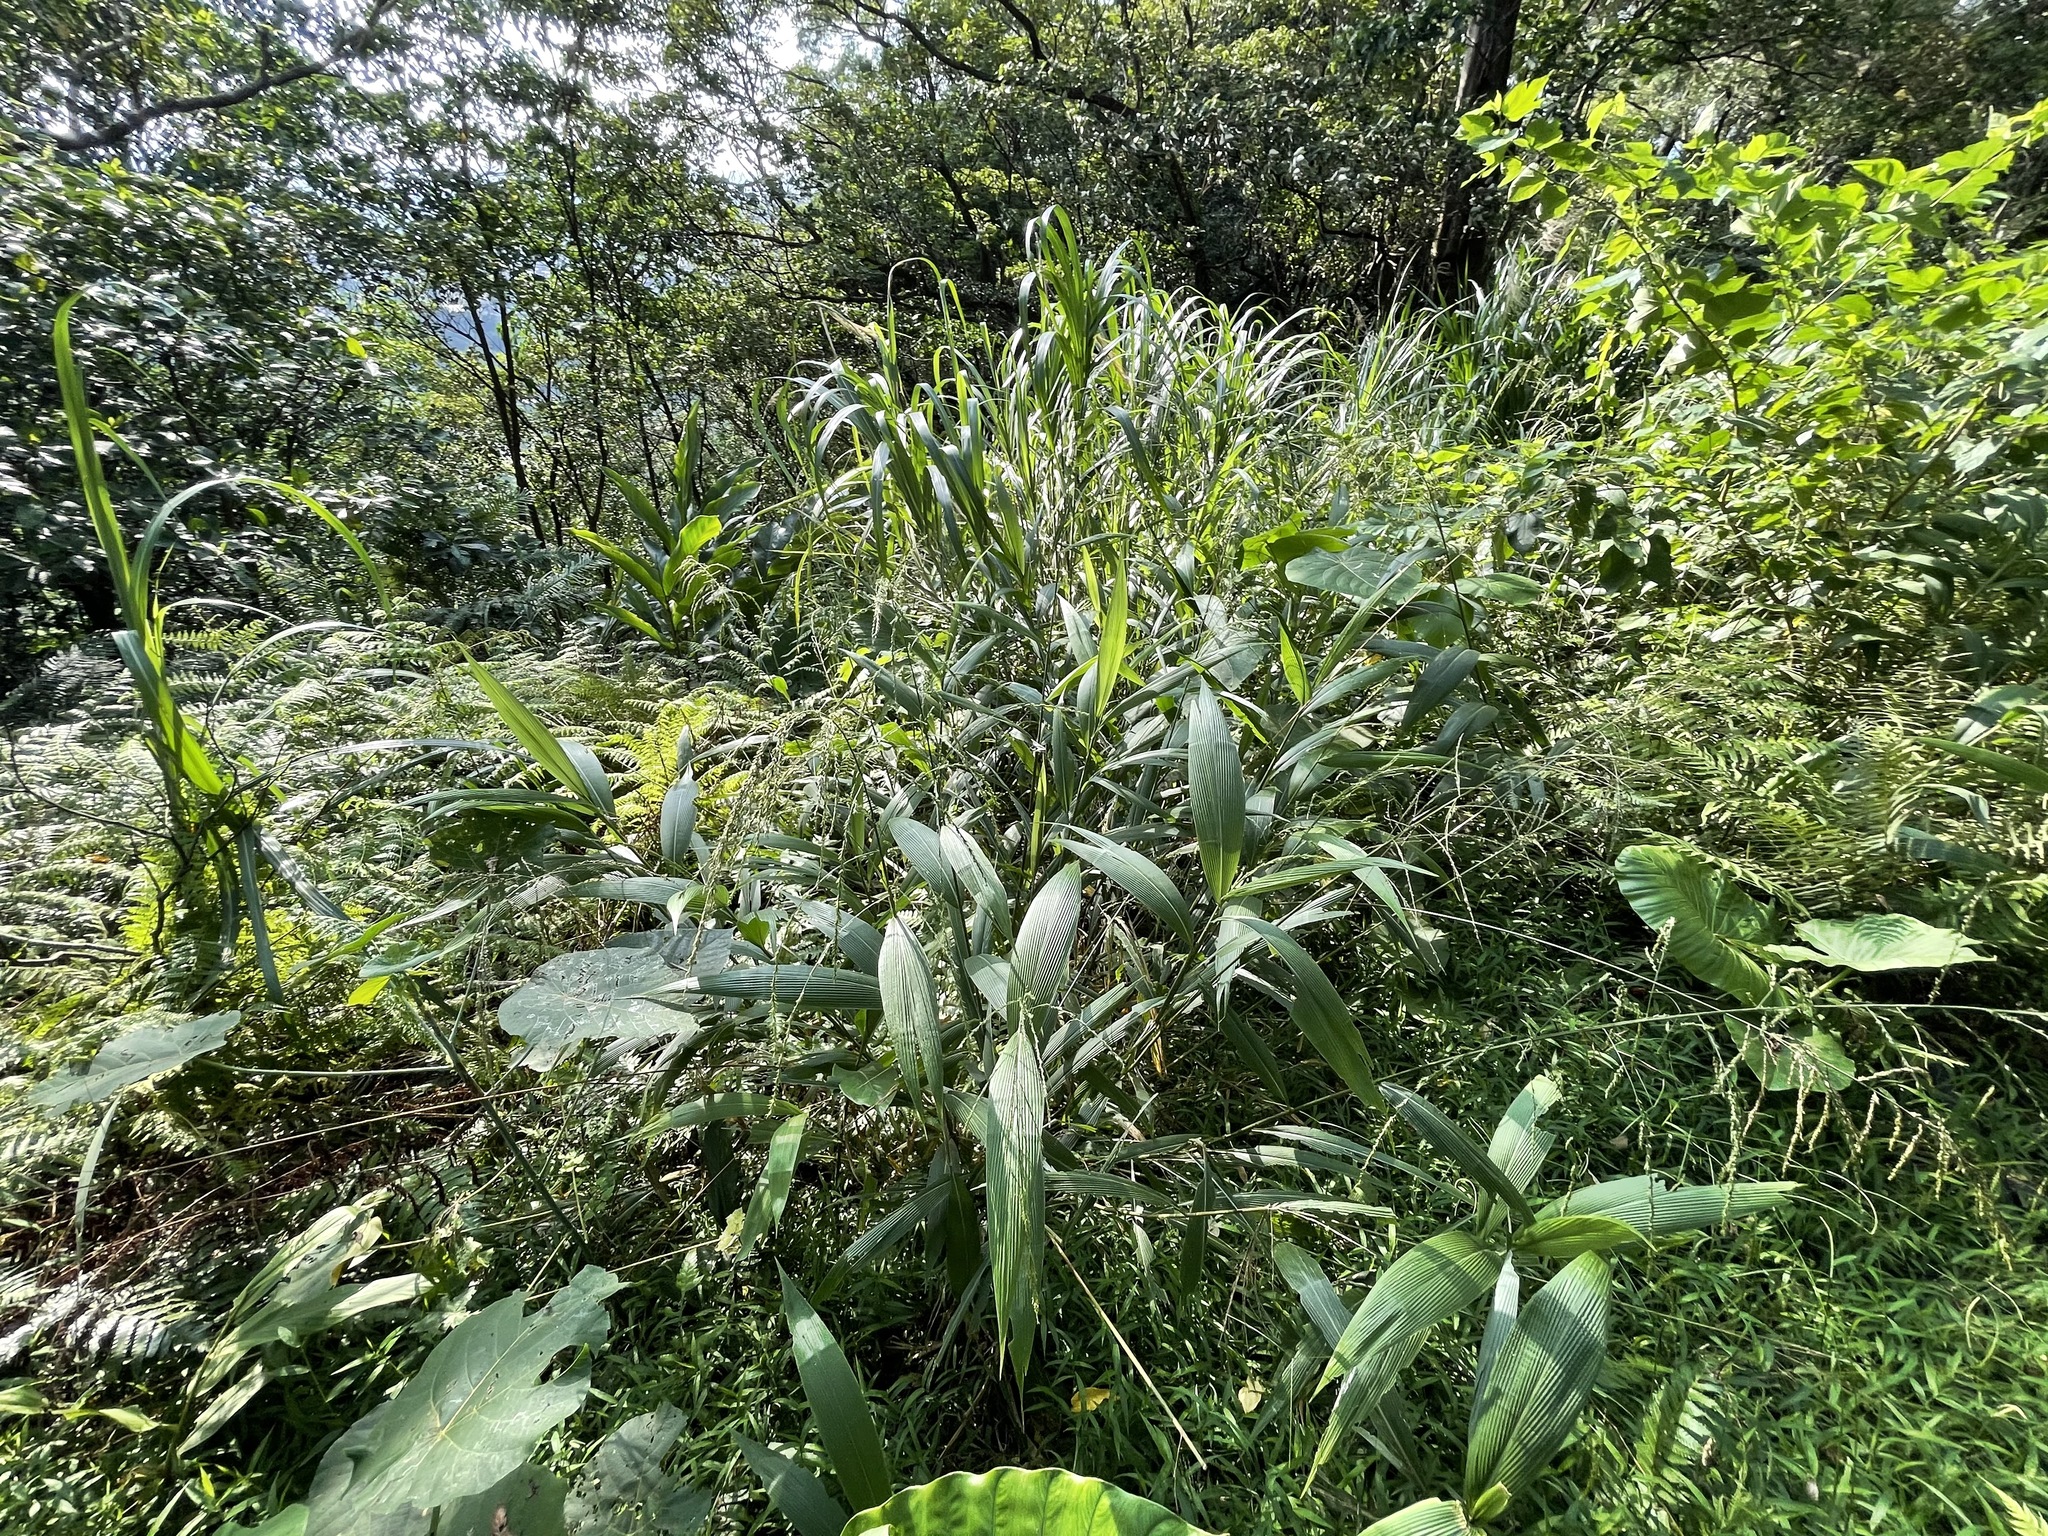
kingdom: Plantae
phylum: Tracheophyta
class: Liliopsida
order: Poales
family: Poaceae
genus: Setaria
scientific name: Setaria palmifolia
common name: Broadleaved bristlegrass
